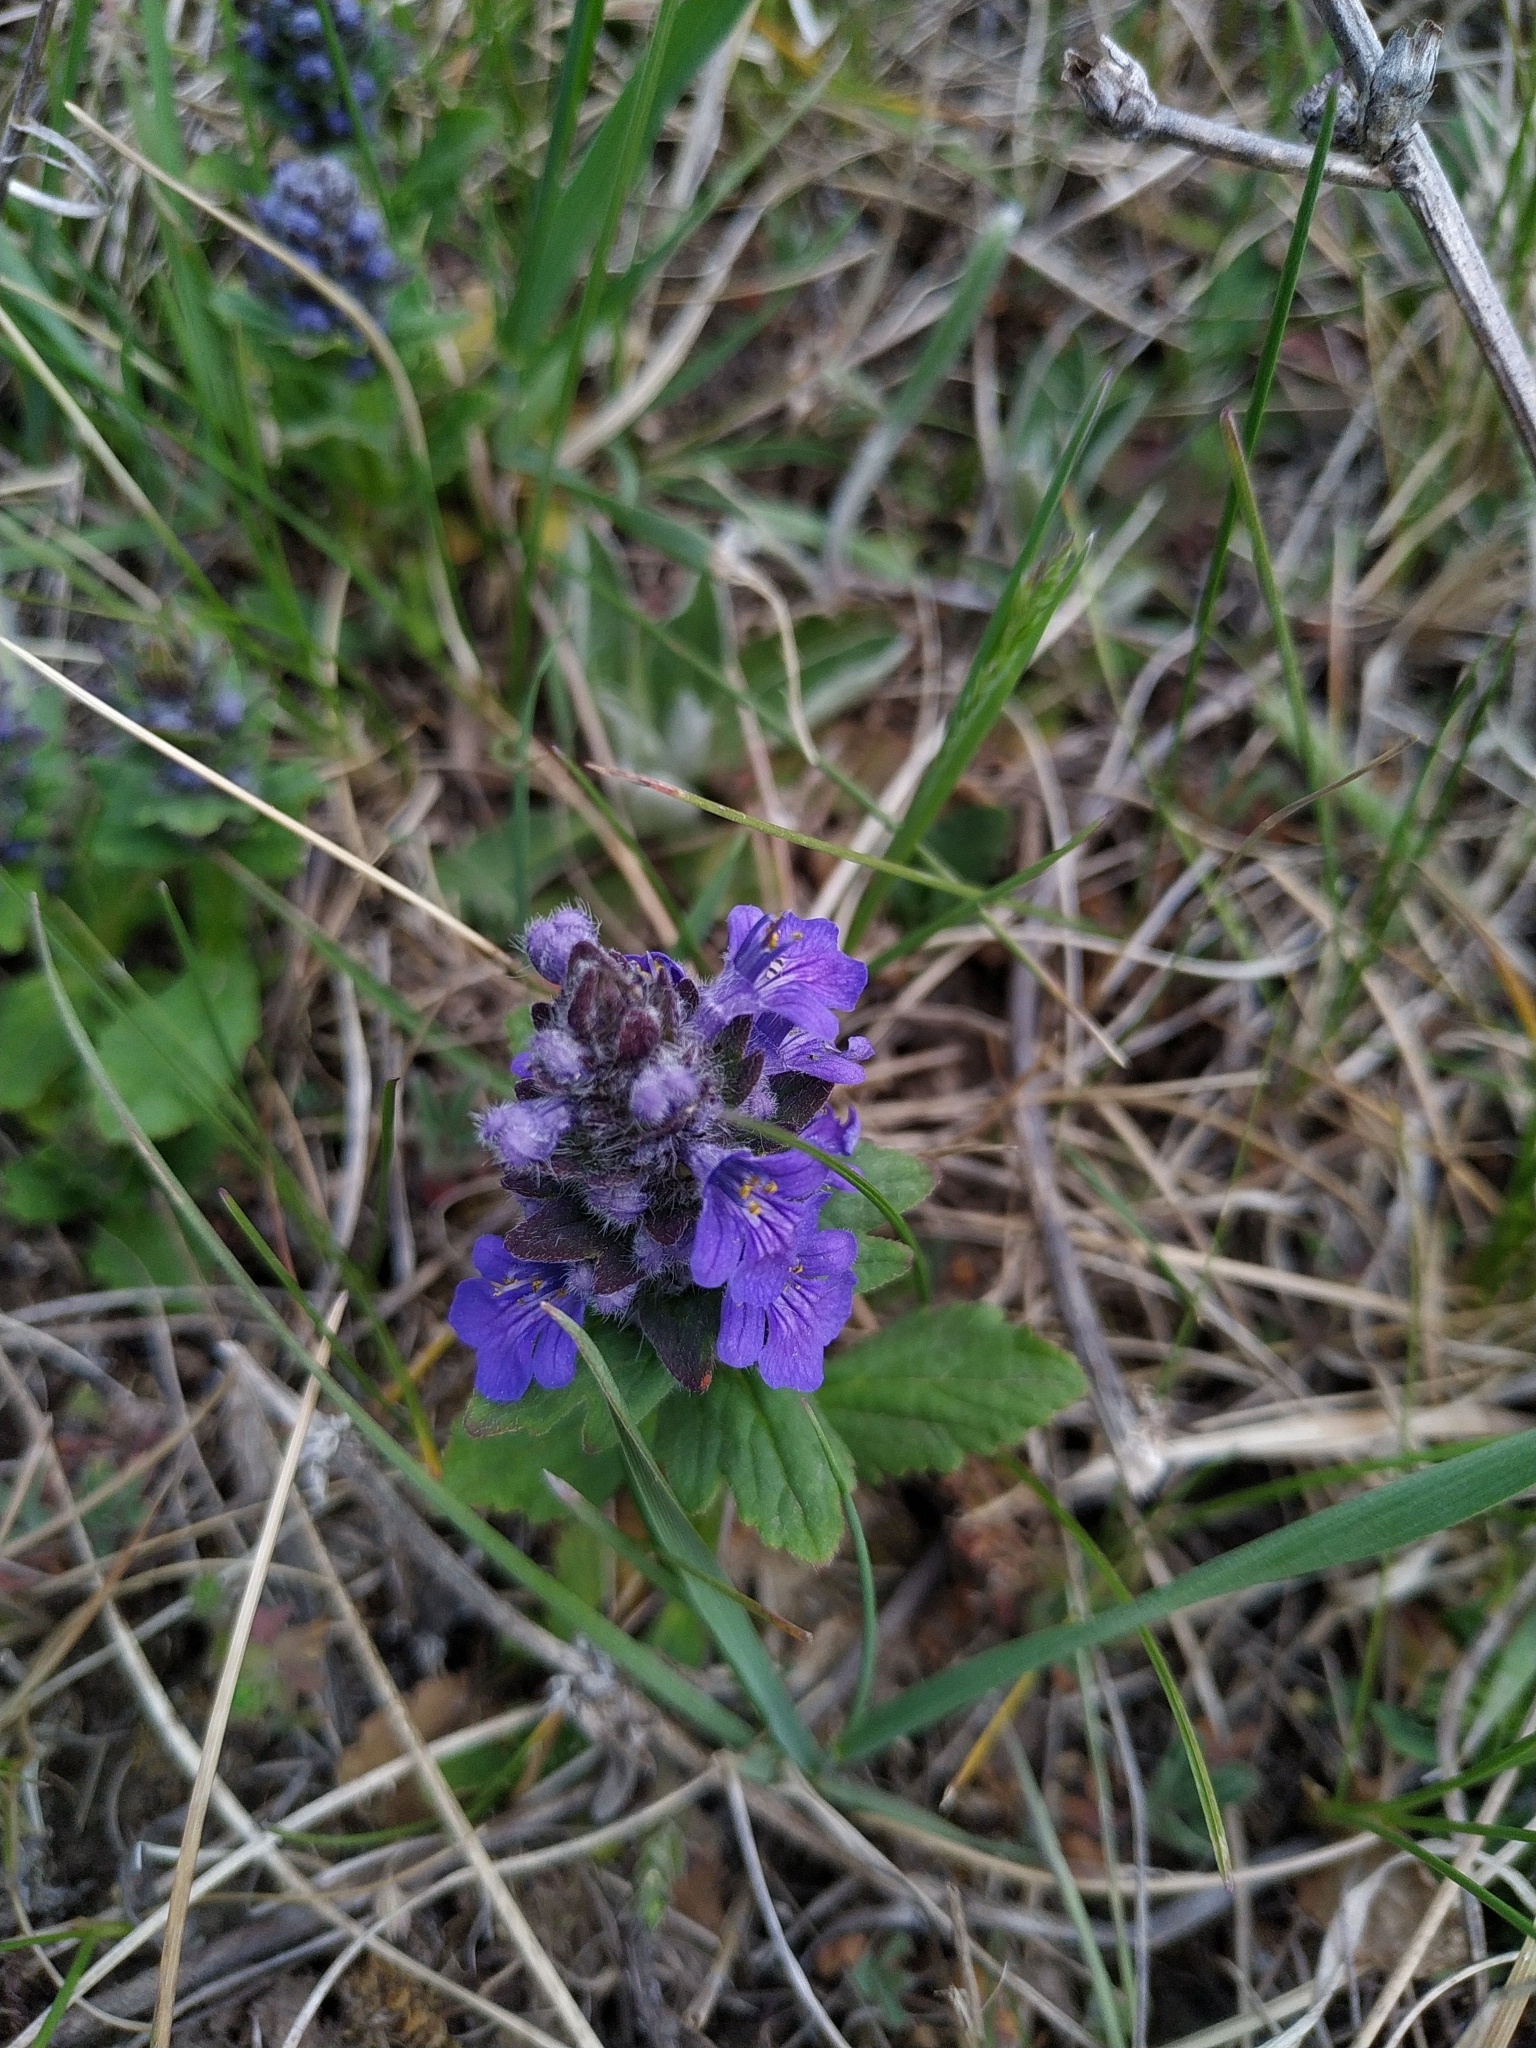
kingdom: Plantae
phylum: Tracheophyta
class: Magnoliopsida
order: Lamiales
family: Lamiaceae
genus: Ajuga
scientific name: Ajuga genevensis
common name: Blue bugle
